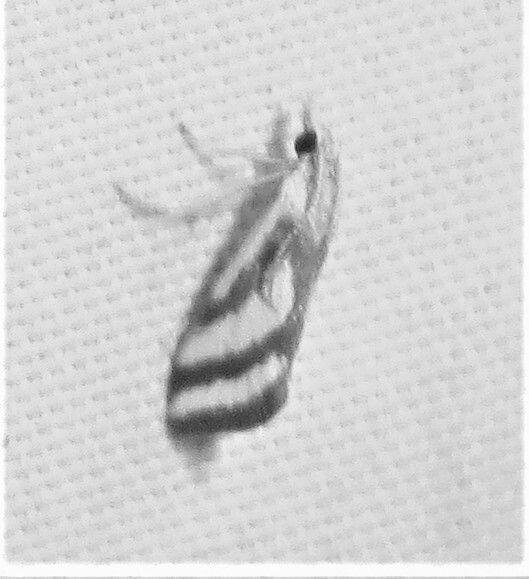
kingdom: Animalia
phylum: Arthropoda
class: Insecta
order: Lepidoptera
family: Crambidae
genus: Microtheoris
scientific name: Microtheoris vibicalis
